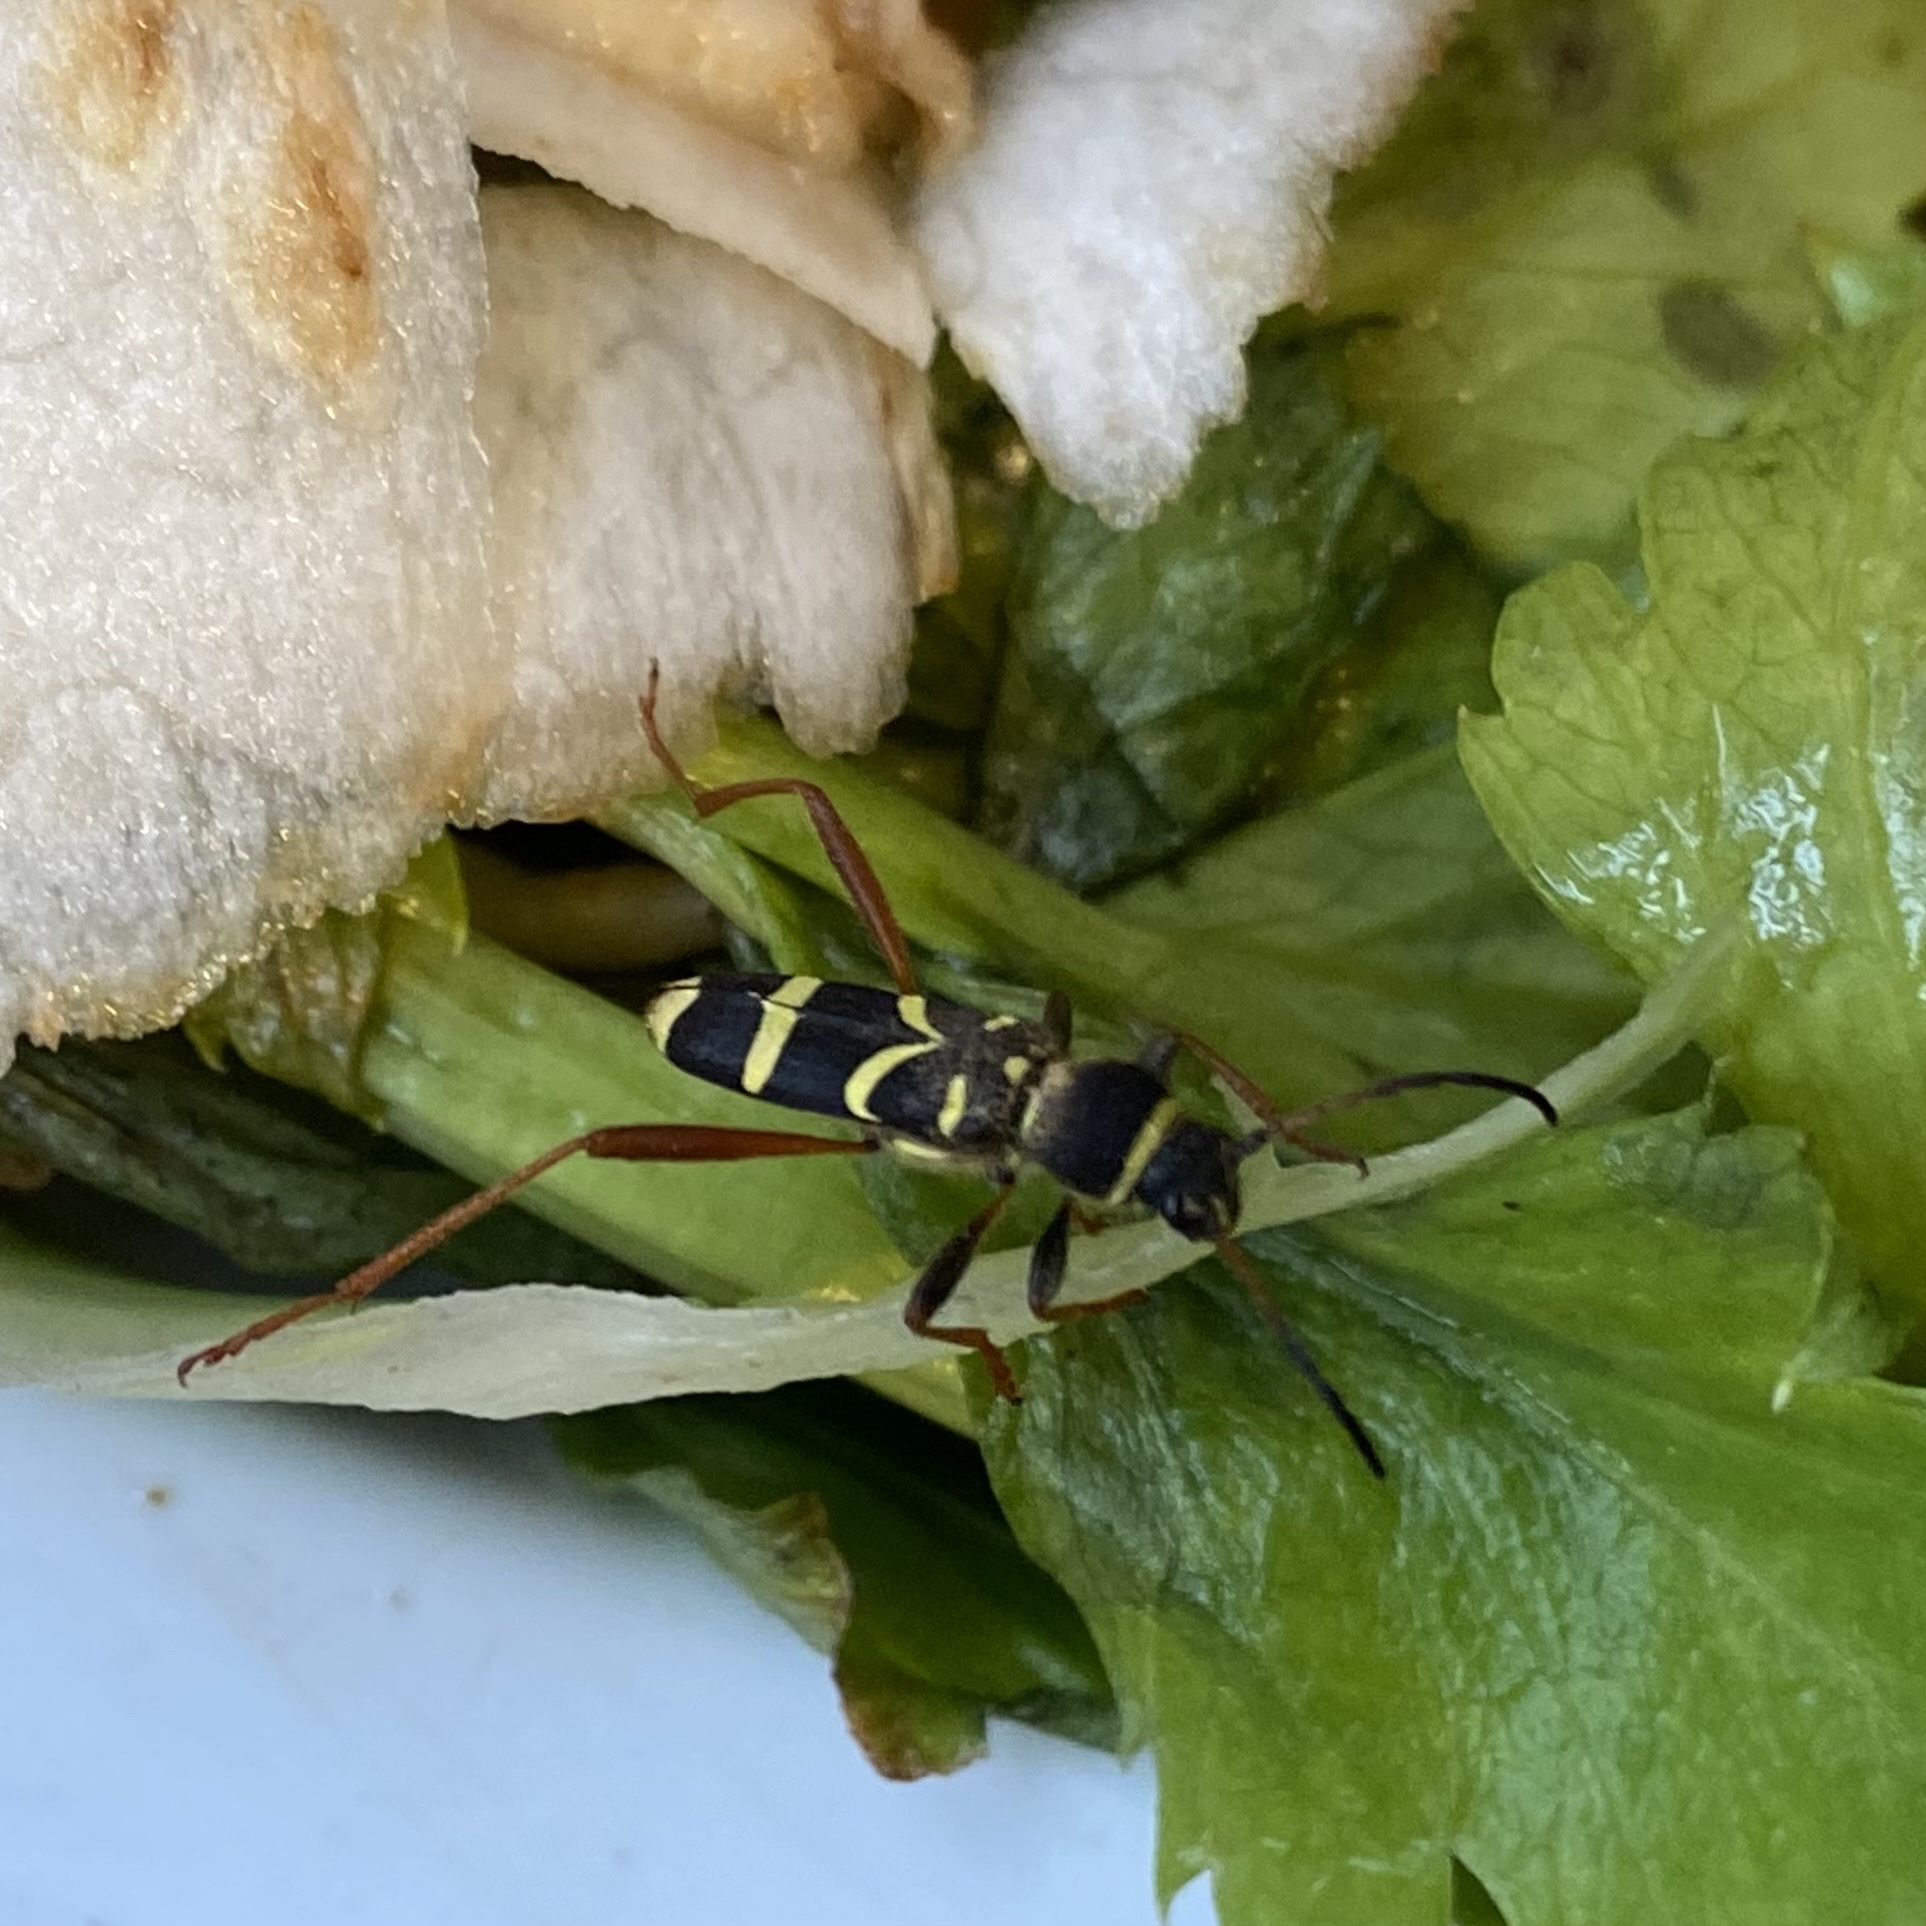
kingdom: Animalia
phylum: Arthropoda
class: Insecta
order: Coleoptera
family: Cerambycidae
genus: Clytus
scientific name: Clytus arietis
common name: Wasp beetle
